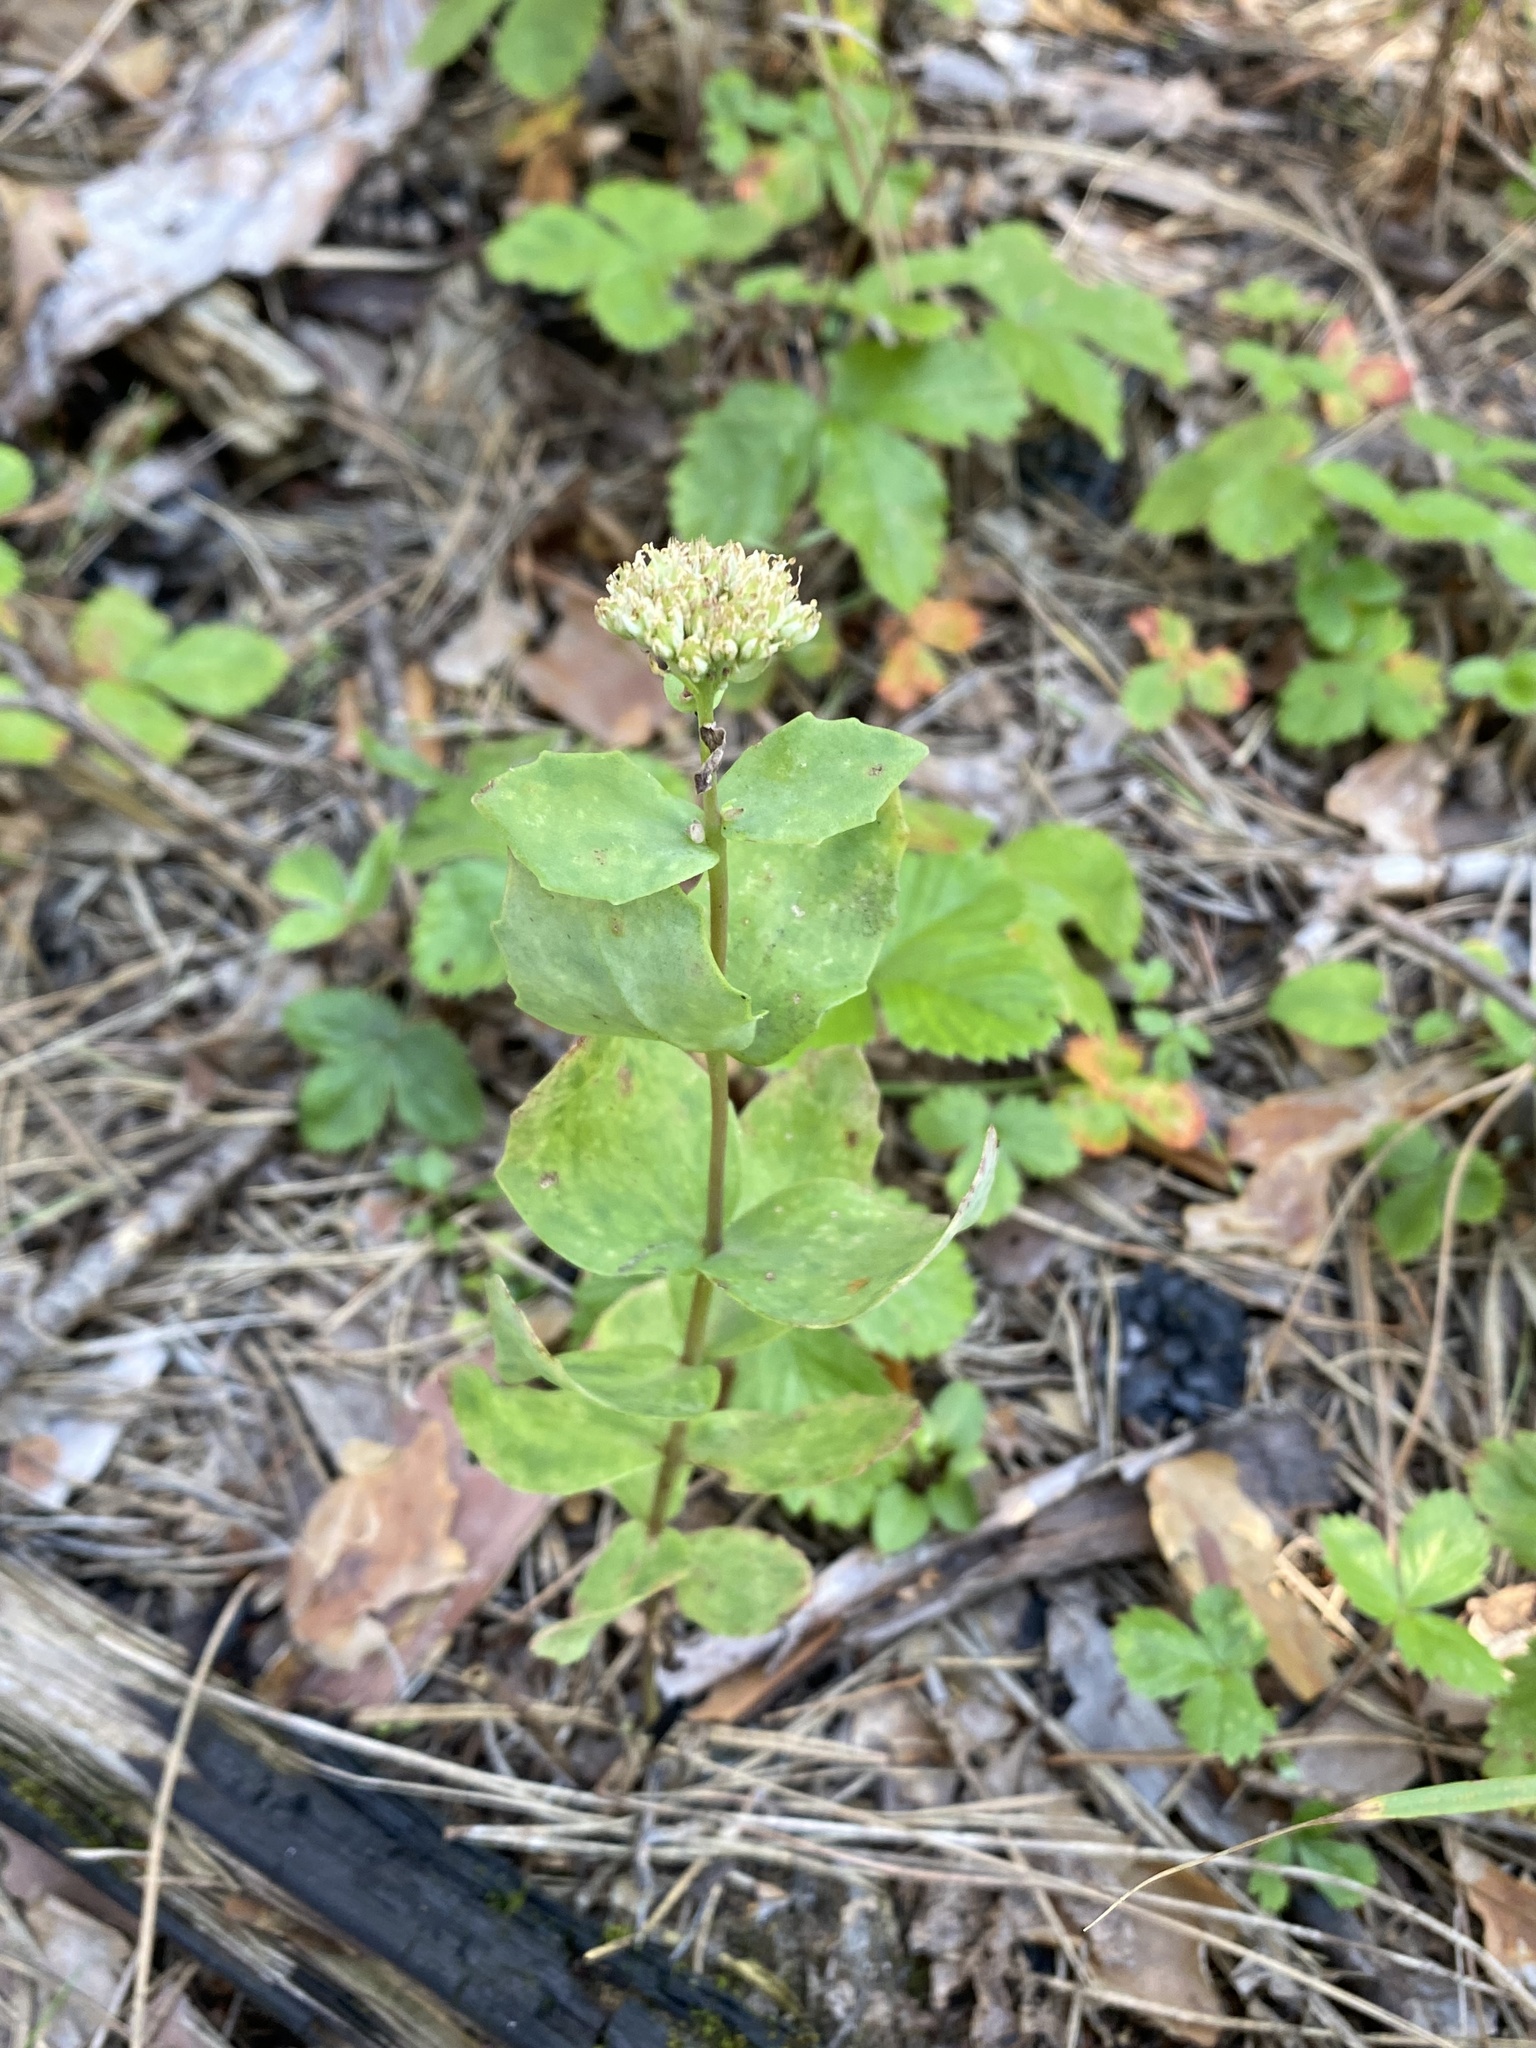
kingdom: Plantae
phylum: Tracheophyta
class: Magnoliopsida
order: Saxifragales
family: Crassulaceae
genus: Hylotelephium
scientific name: Hylotelephium maximum
